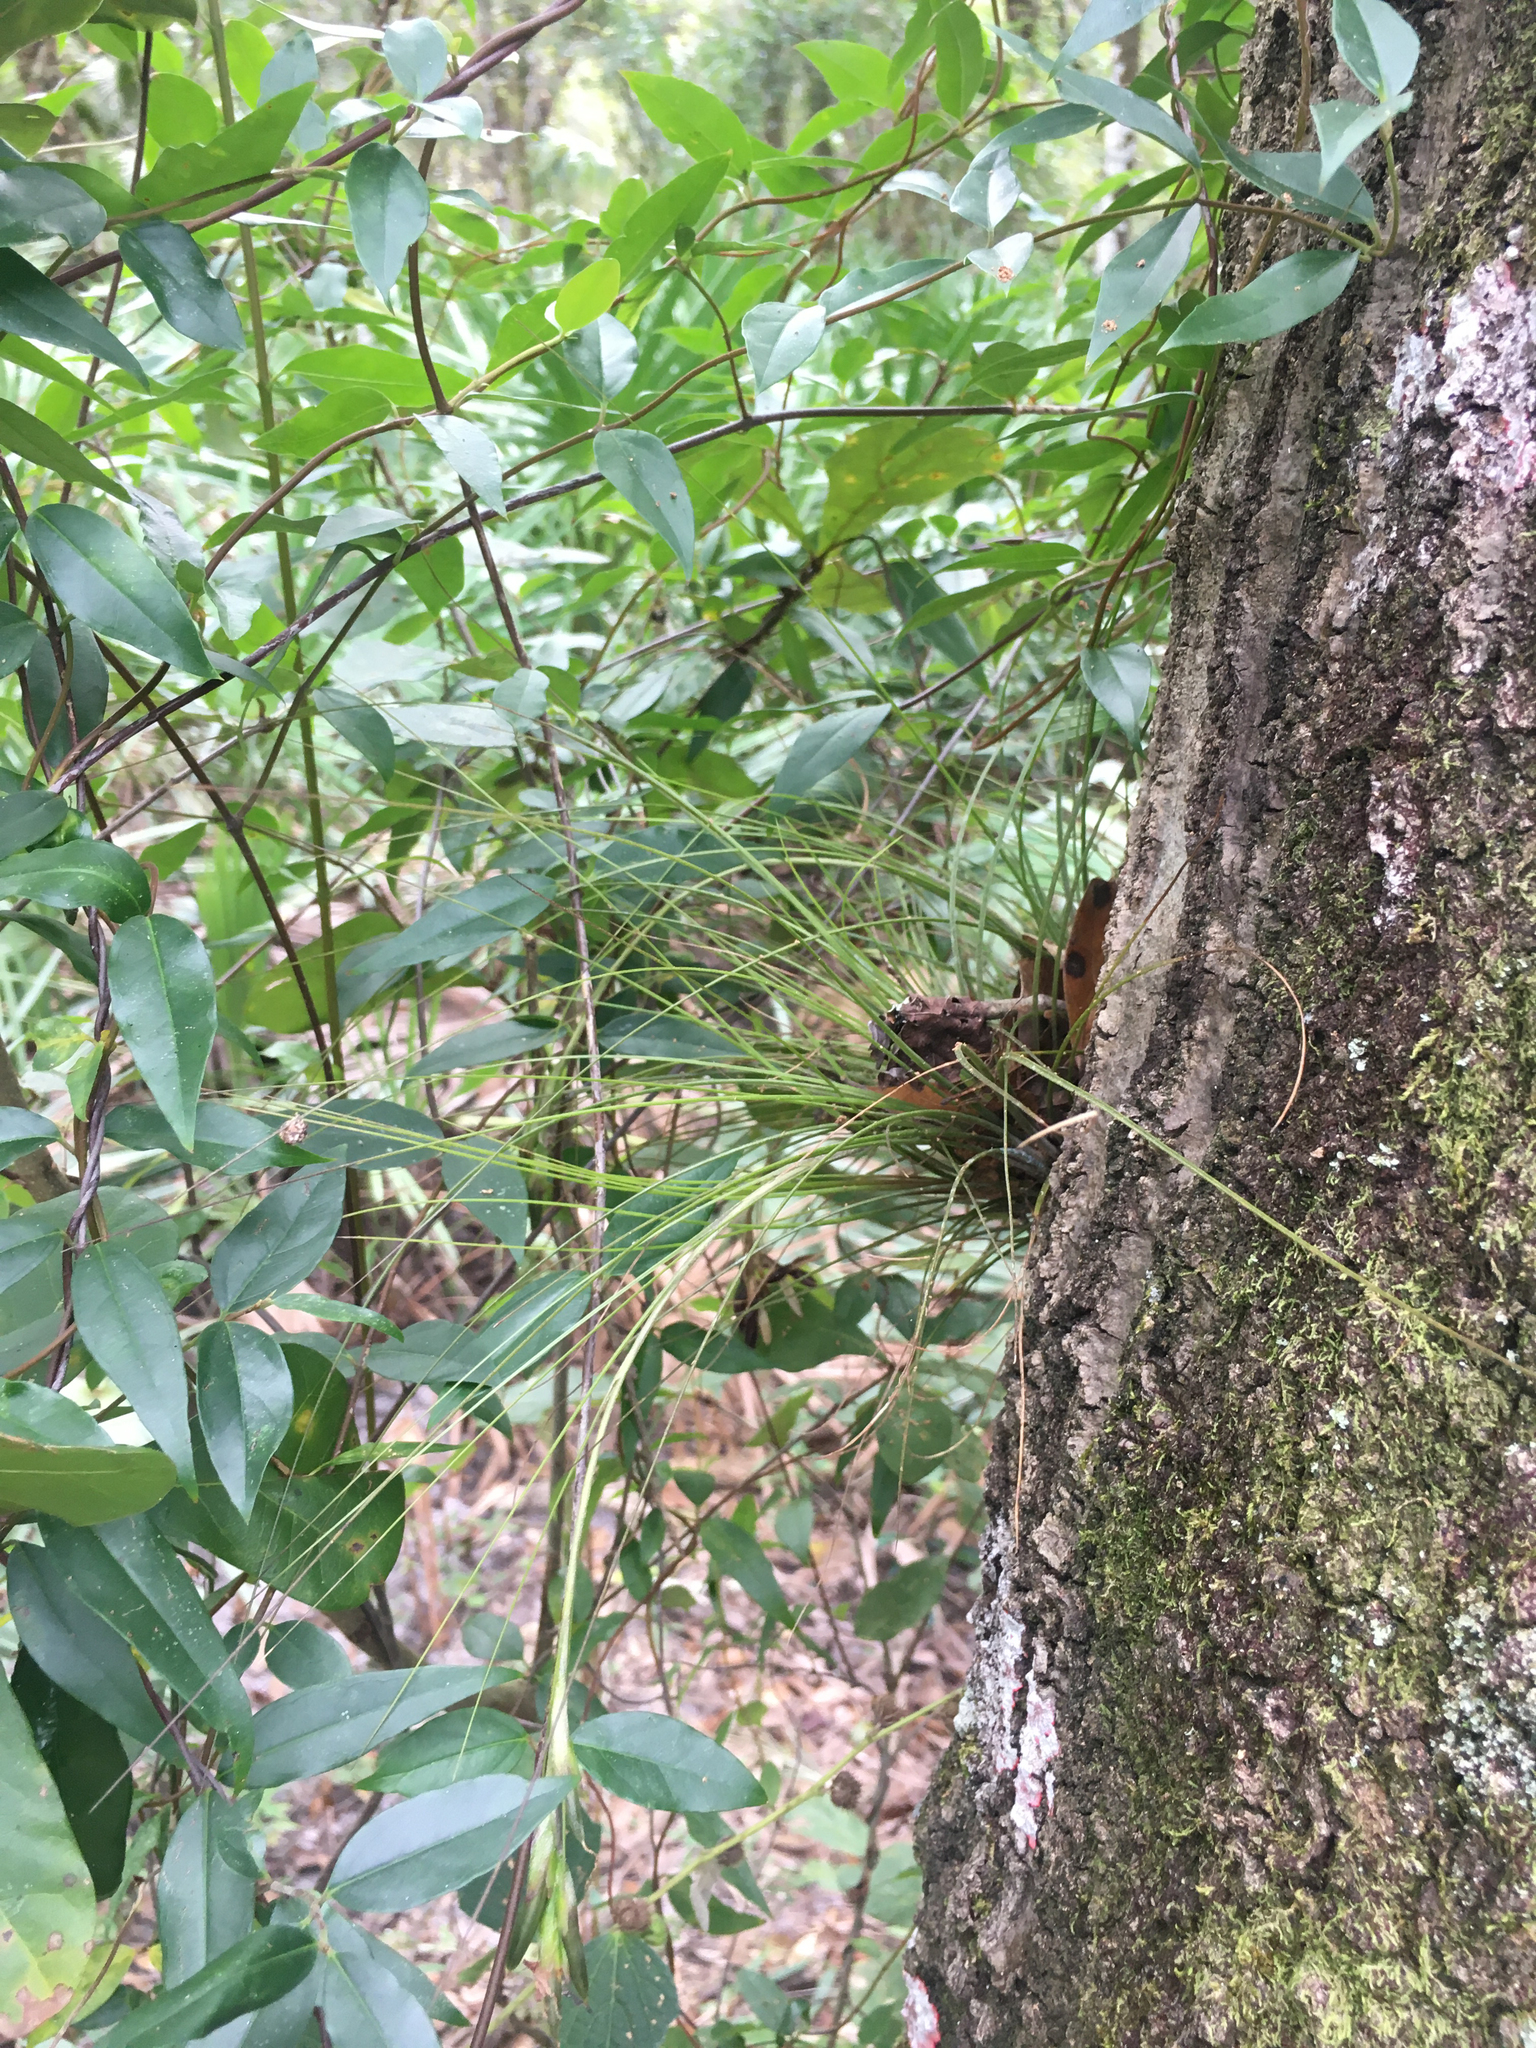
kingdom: Plantae
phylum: Tracheophyta
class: Liliopsida
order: Poales
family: Bromeliaceae
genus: Tillandsia
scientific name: Tillandsia setacea
